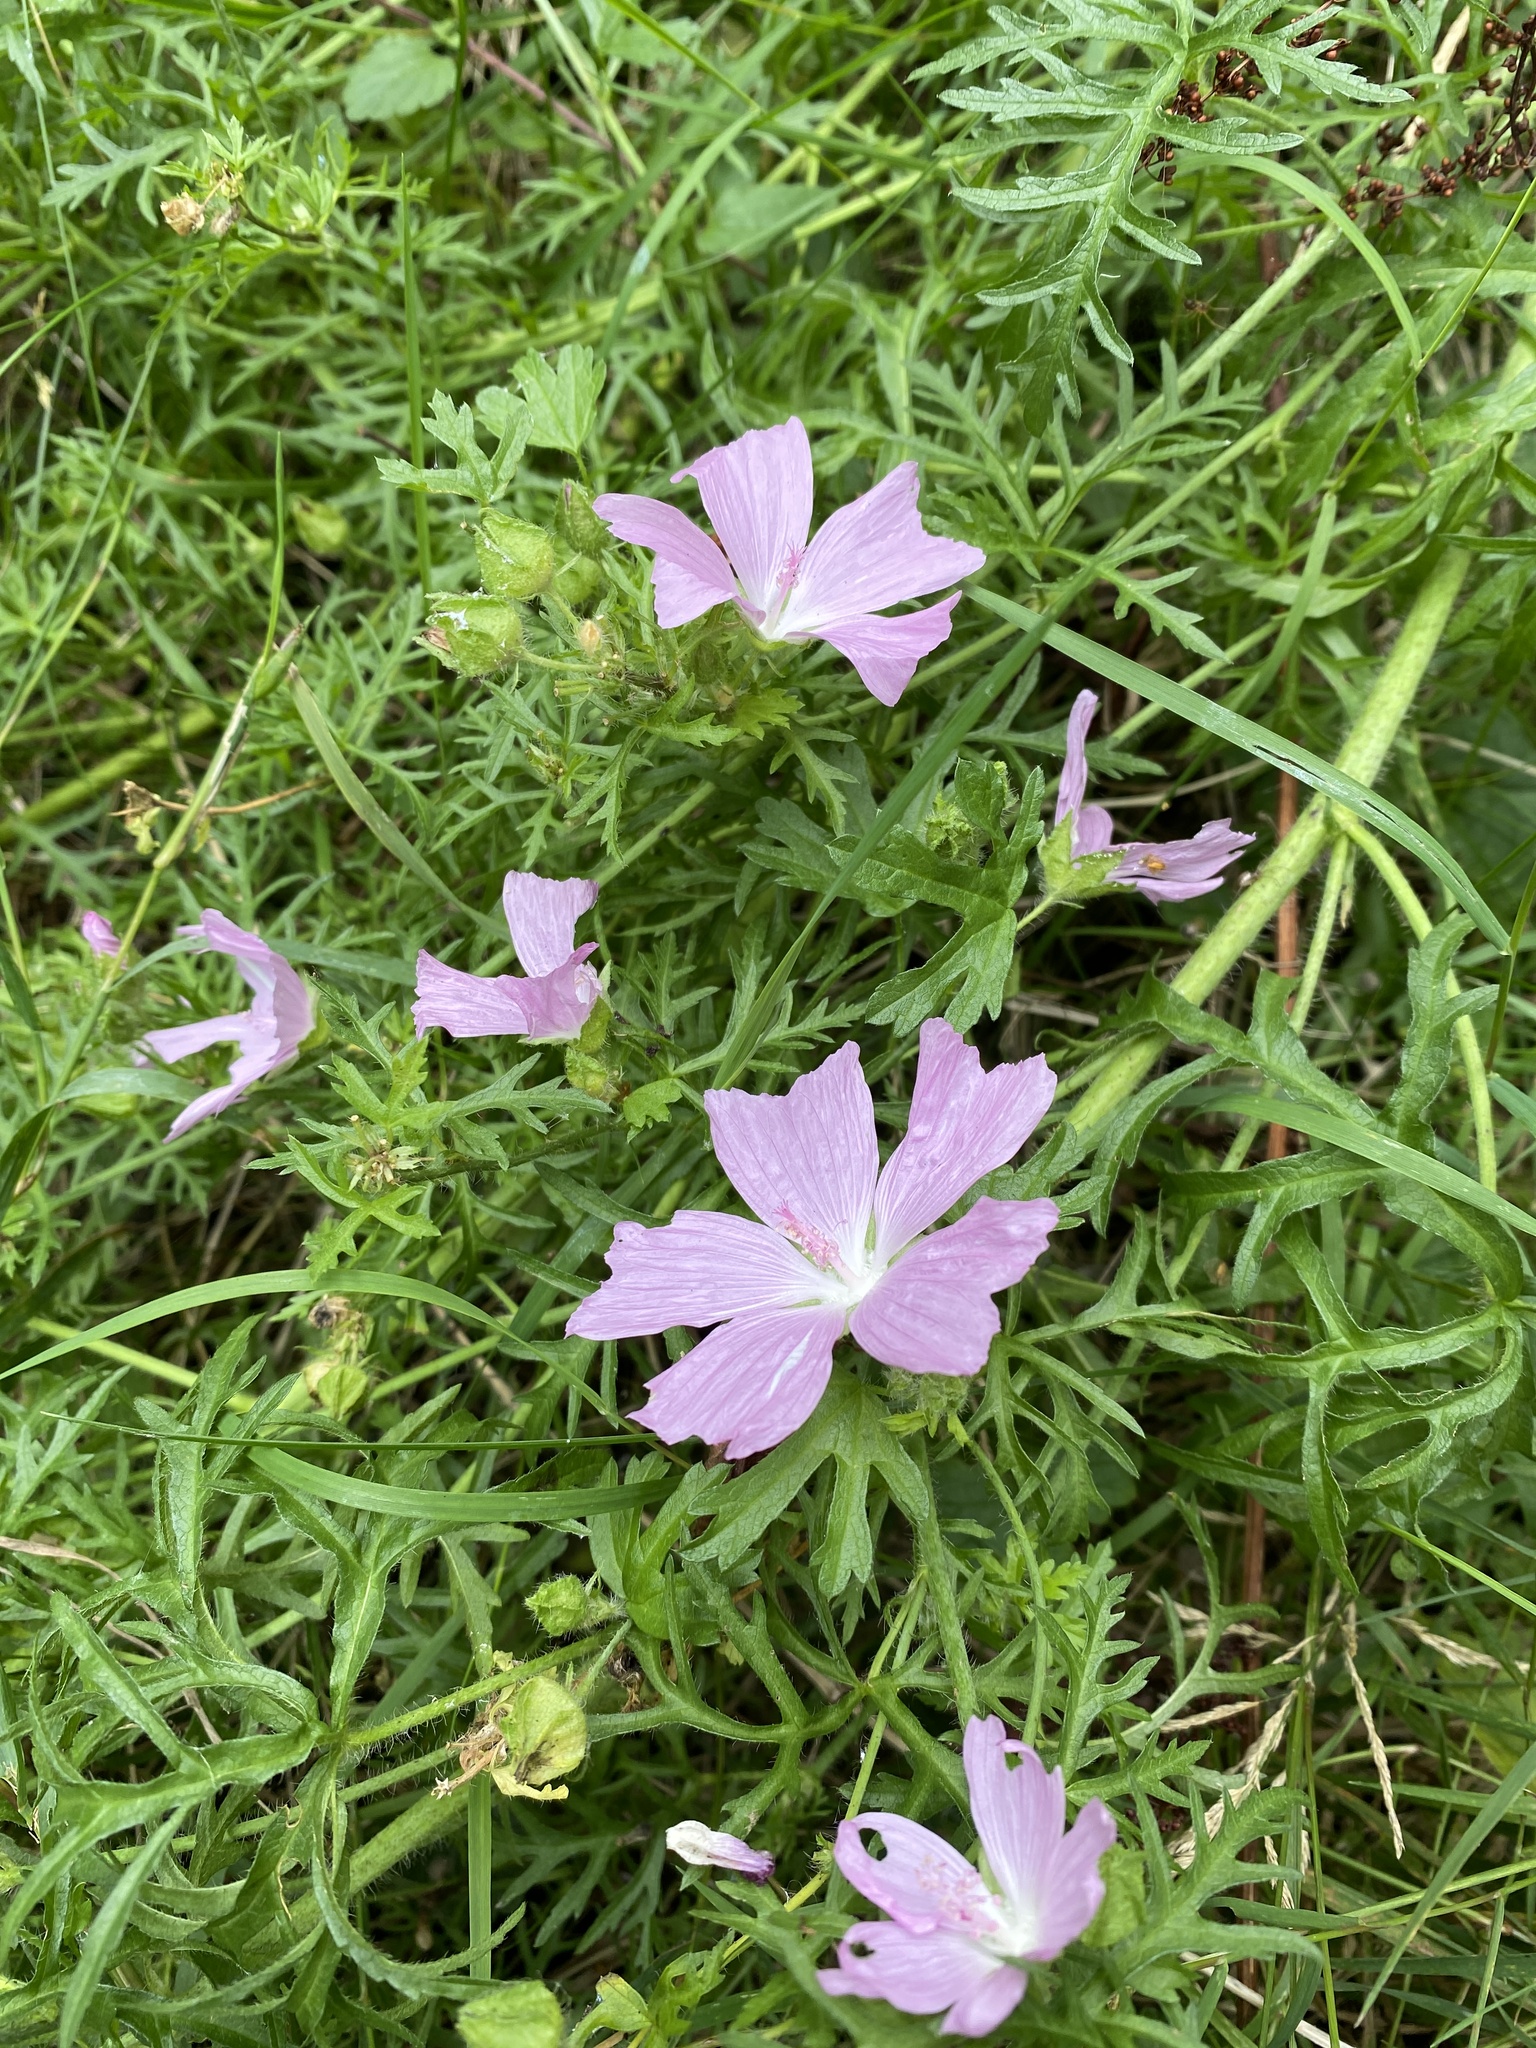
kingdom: Plantae
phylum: Tracheophyta
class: Magnoliopsida
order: Malvales
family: Malvaceae
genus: Malva
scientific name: Malva moschata
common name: Musk mallow
